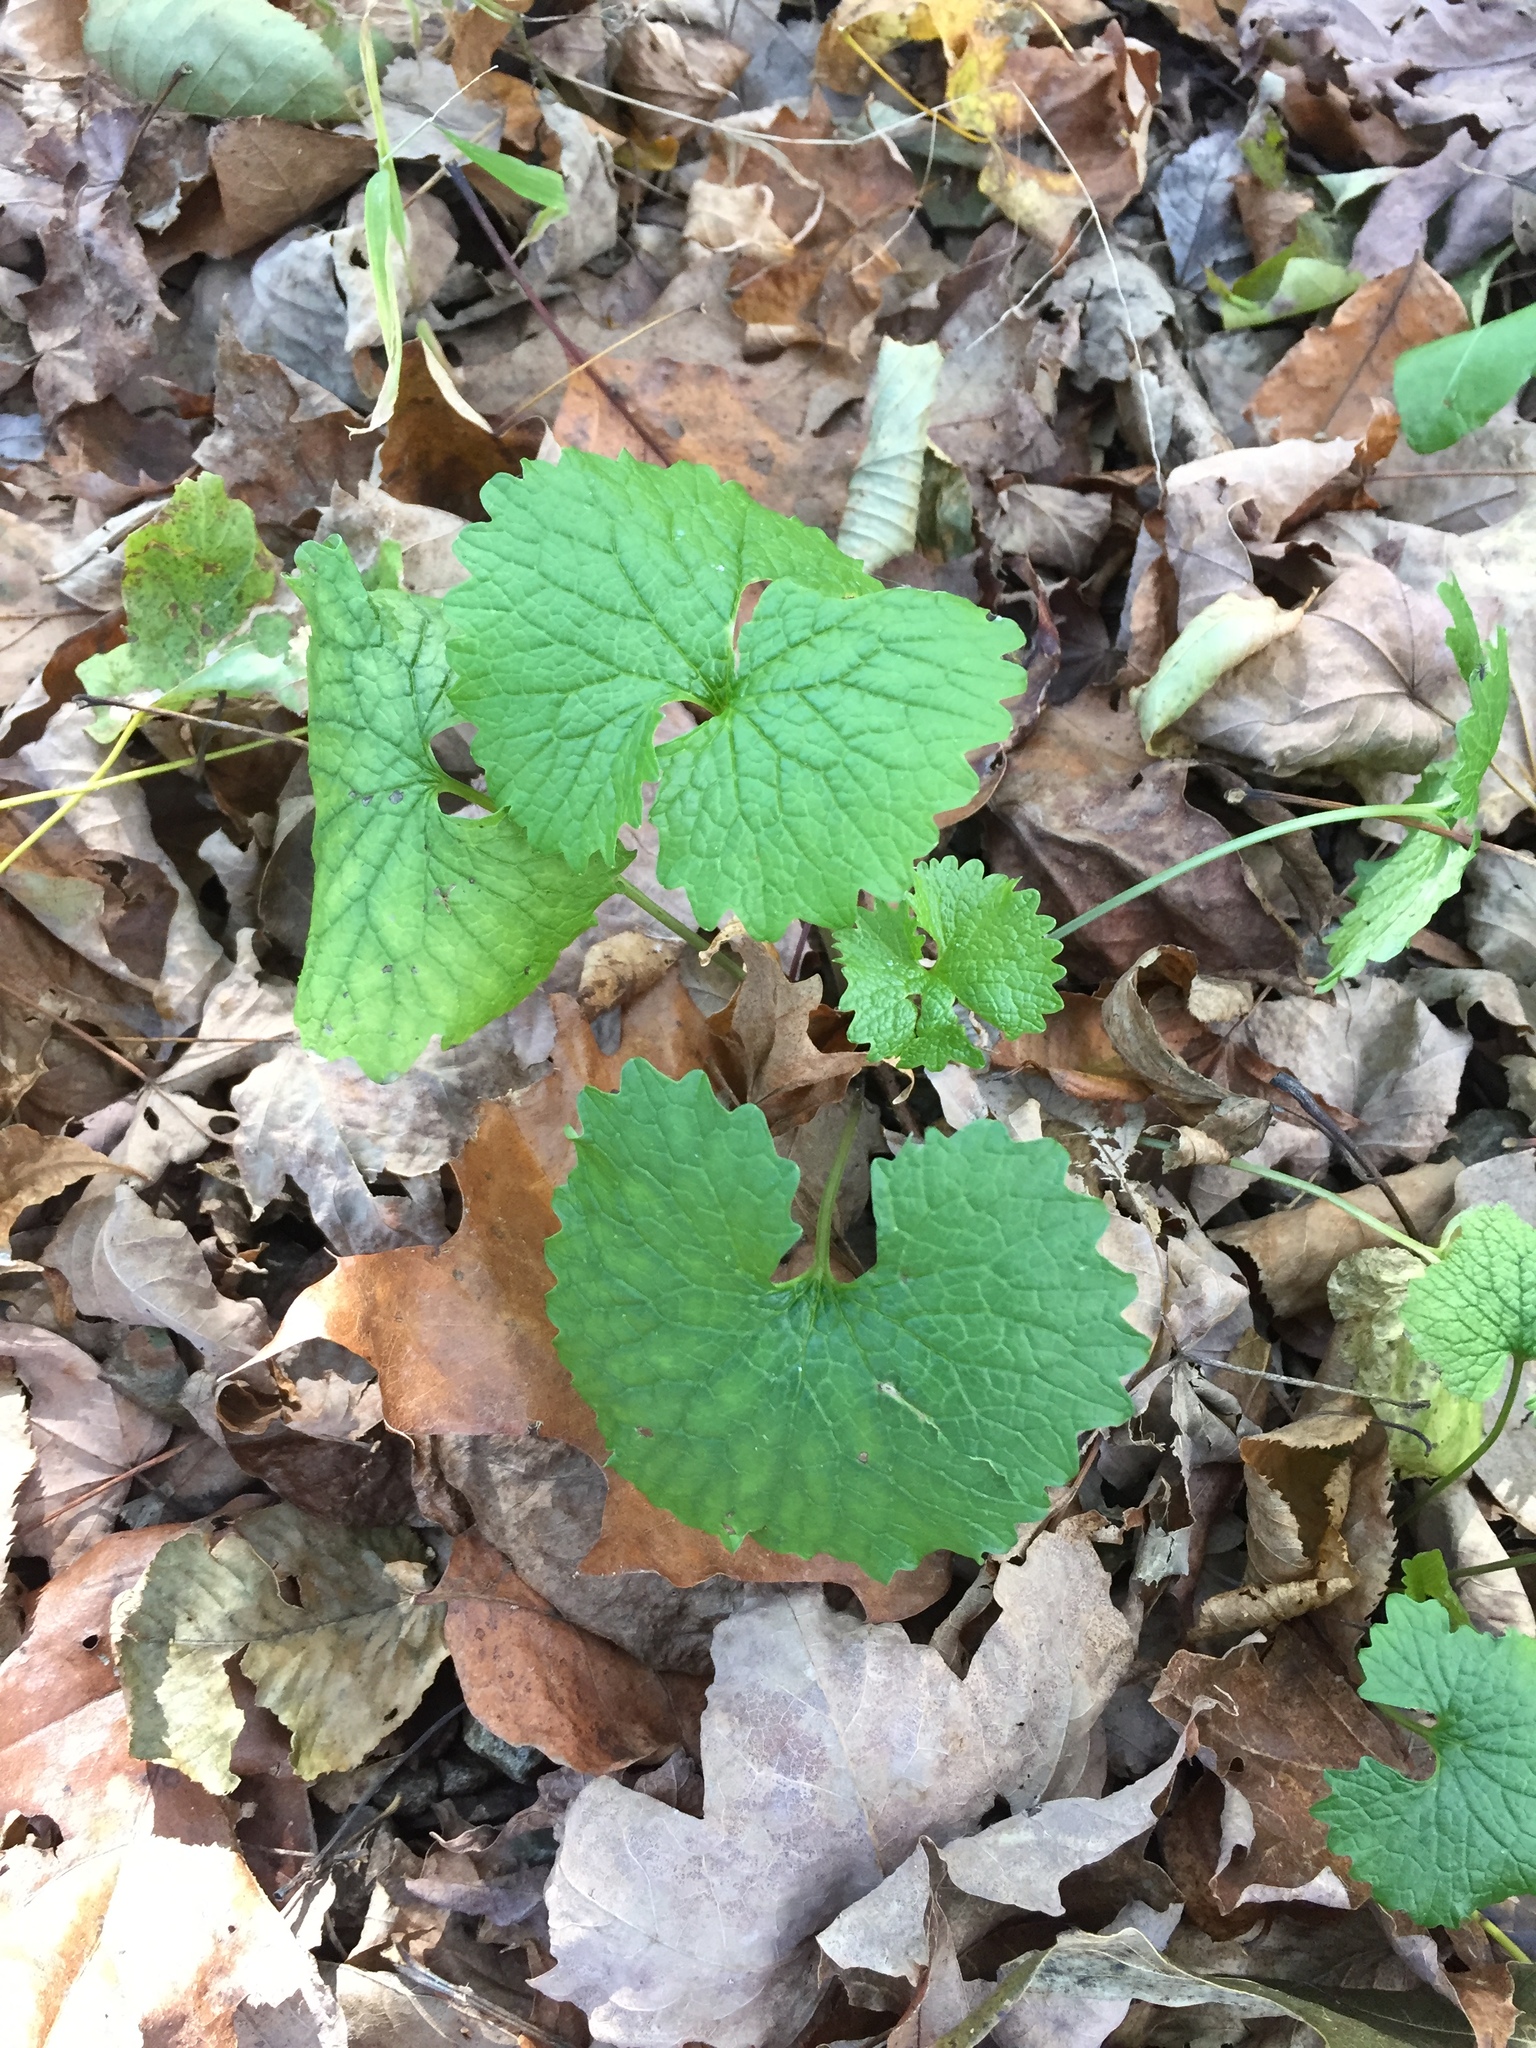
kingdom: Plantae
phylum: Tracheophyta
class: Magnoliopsida
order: Brassicales
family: Brassicaceae
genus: Alliaria
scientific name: Alliaria petiolata
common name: Garlic mustard
